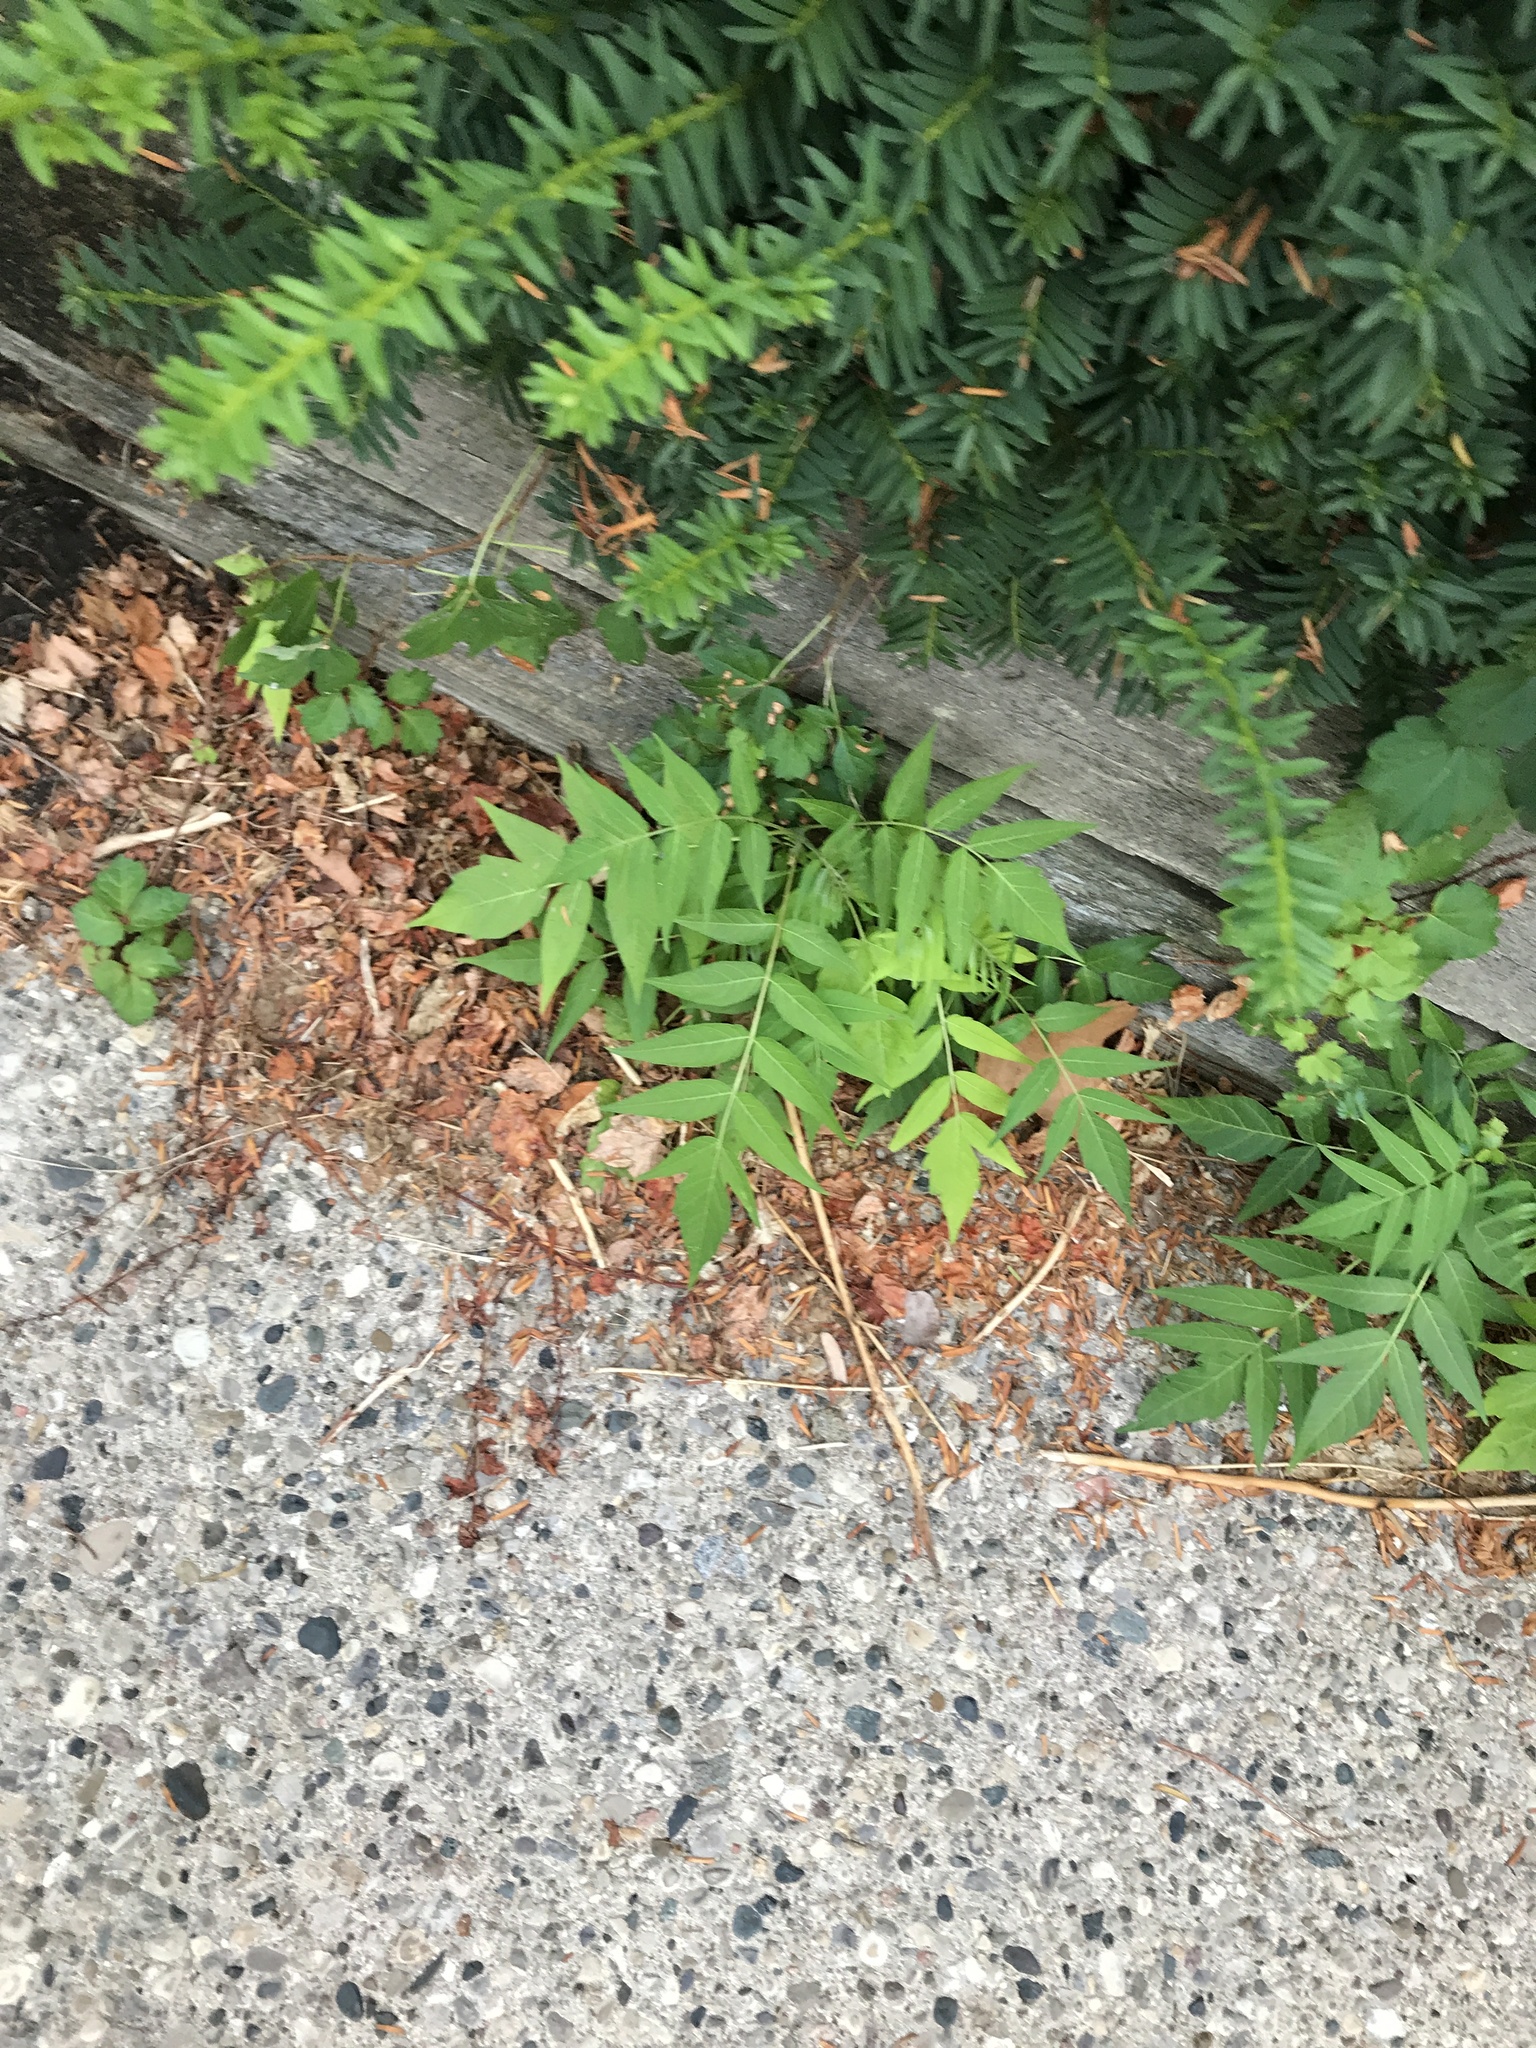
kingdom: Plantae
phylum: Tracheophyta
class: Magnoliopsida
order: Sapindales
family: Simaroubaceae
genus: Ailanthus
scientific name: Ailanthus altissima
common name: Tree-of-heaven
